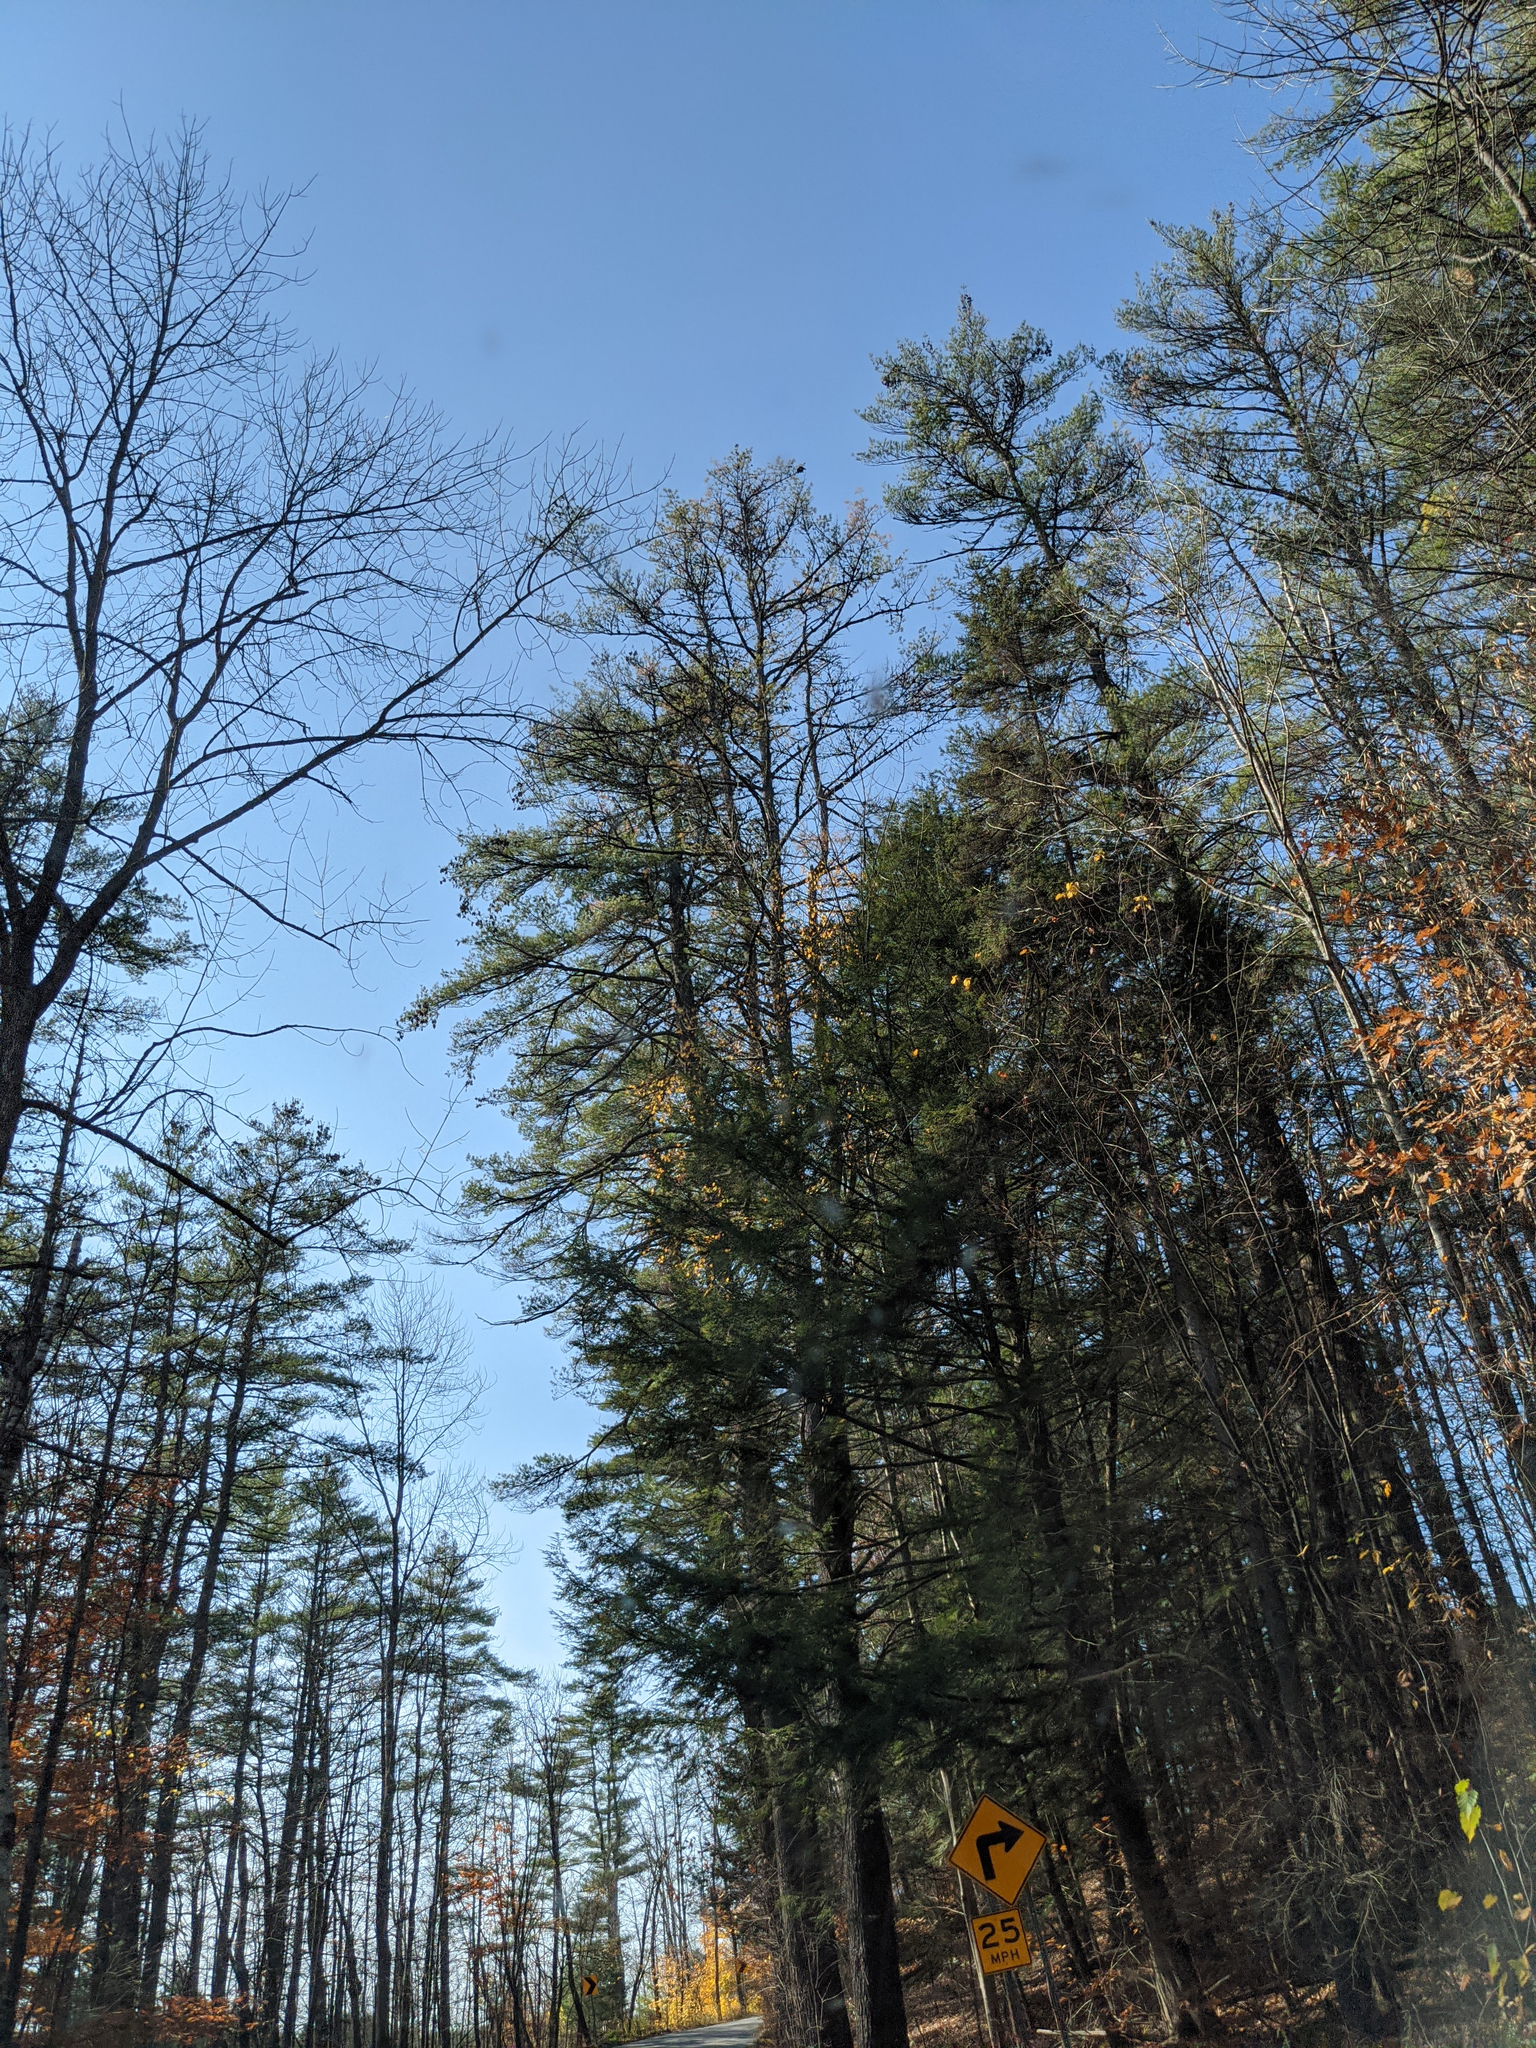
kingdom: Plantae
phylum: Tracheophyta
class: Pinopsida
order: Pinales
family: Pinaceae
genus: Pinus
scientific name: Pinus strobus
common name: Weymouth pine
